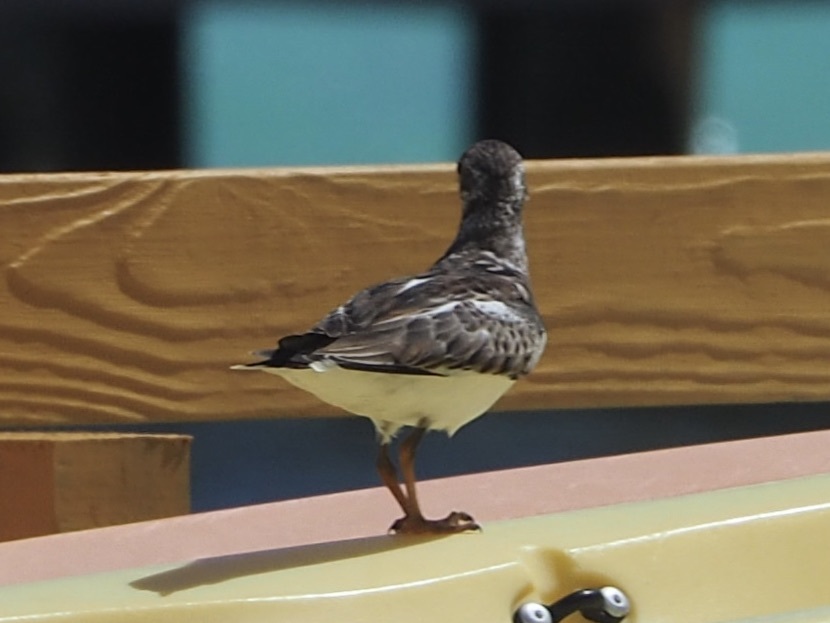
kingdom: Animalia
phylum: Chordata
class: Aves
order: Charadriiformes
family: Scolopacidae
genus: Arenaria
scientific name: Arenaria interpres
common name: Ruddy turnstone
